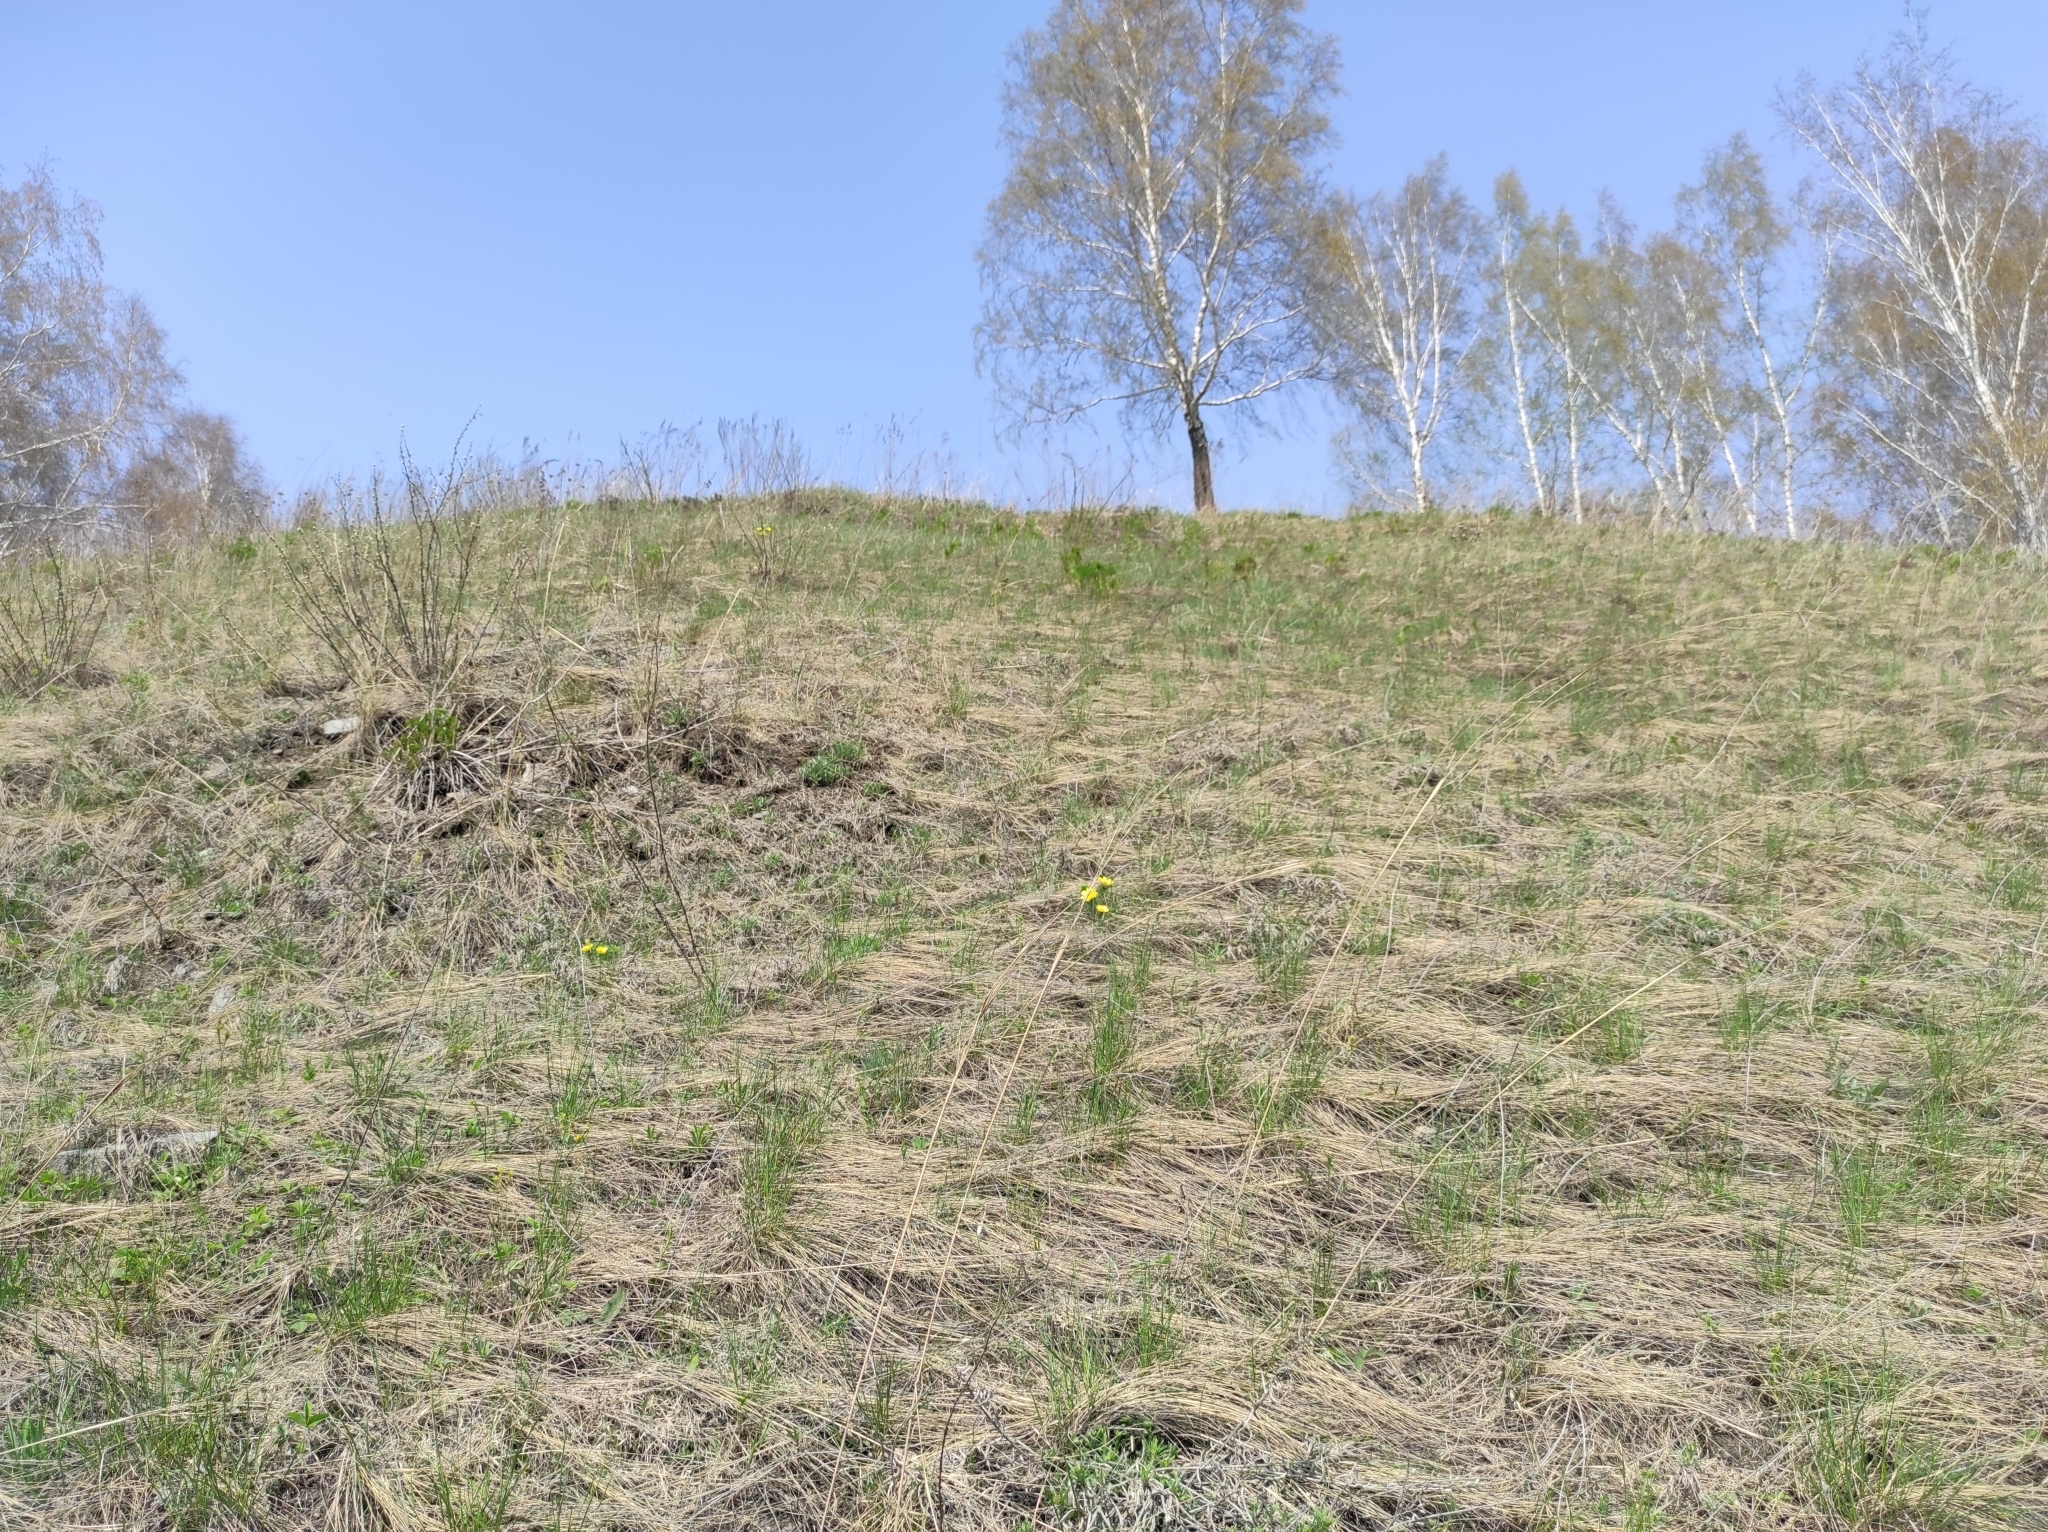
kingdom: Plantae
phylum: Tracheophyta
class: Magnoliopsida
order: Ranunculales
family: Ranunculaceae
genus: Adonis
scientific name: Adonis vernalis
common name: Yellow pheasants-eye
